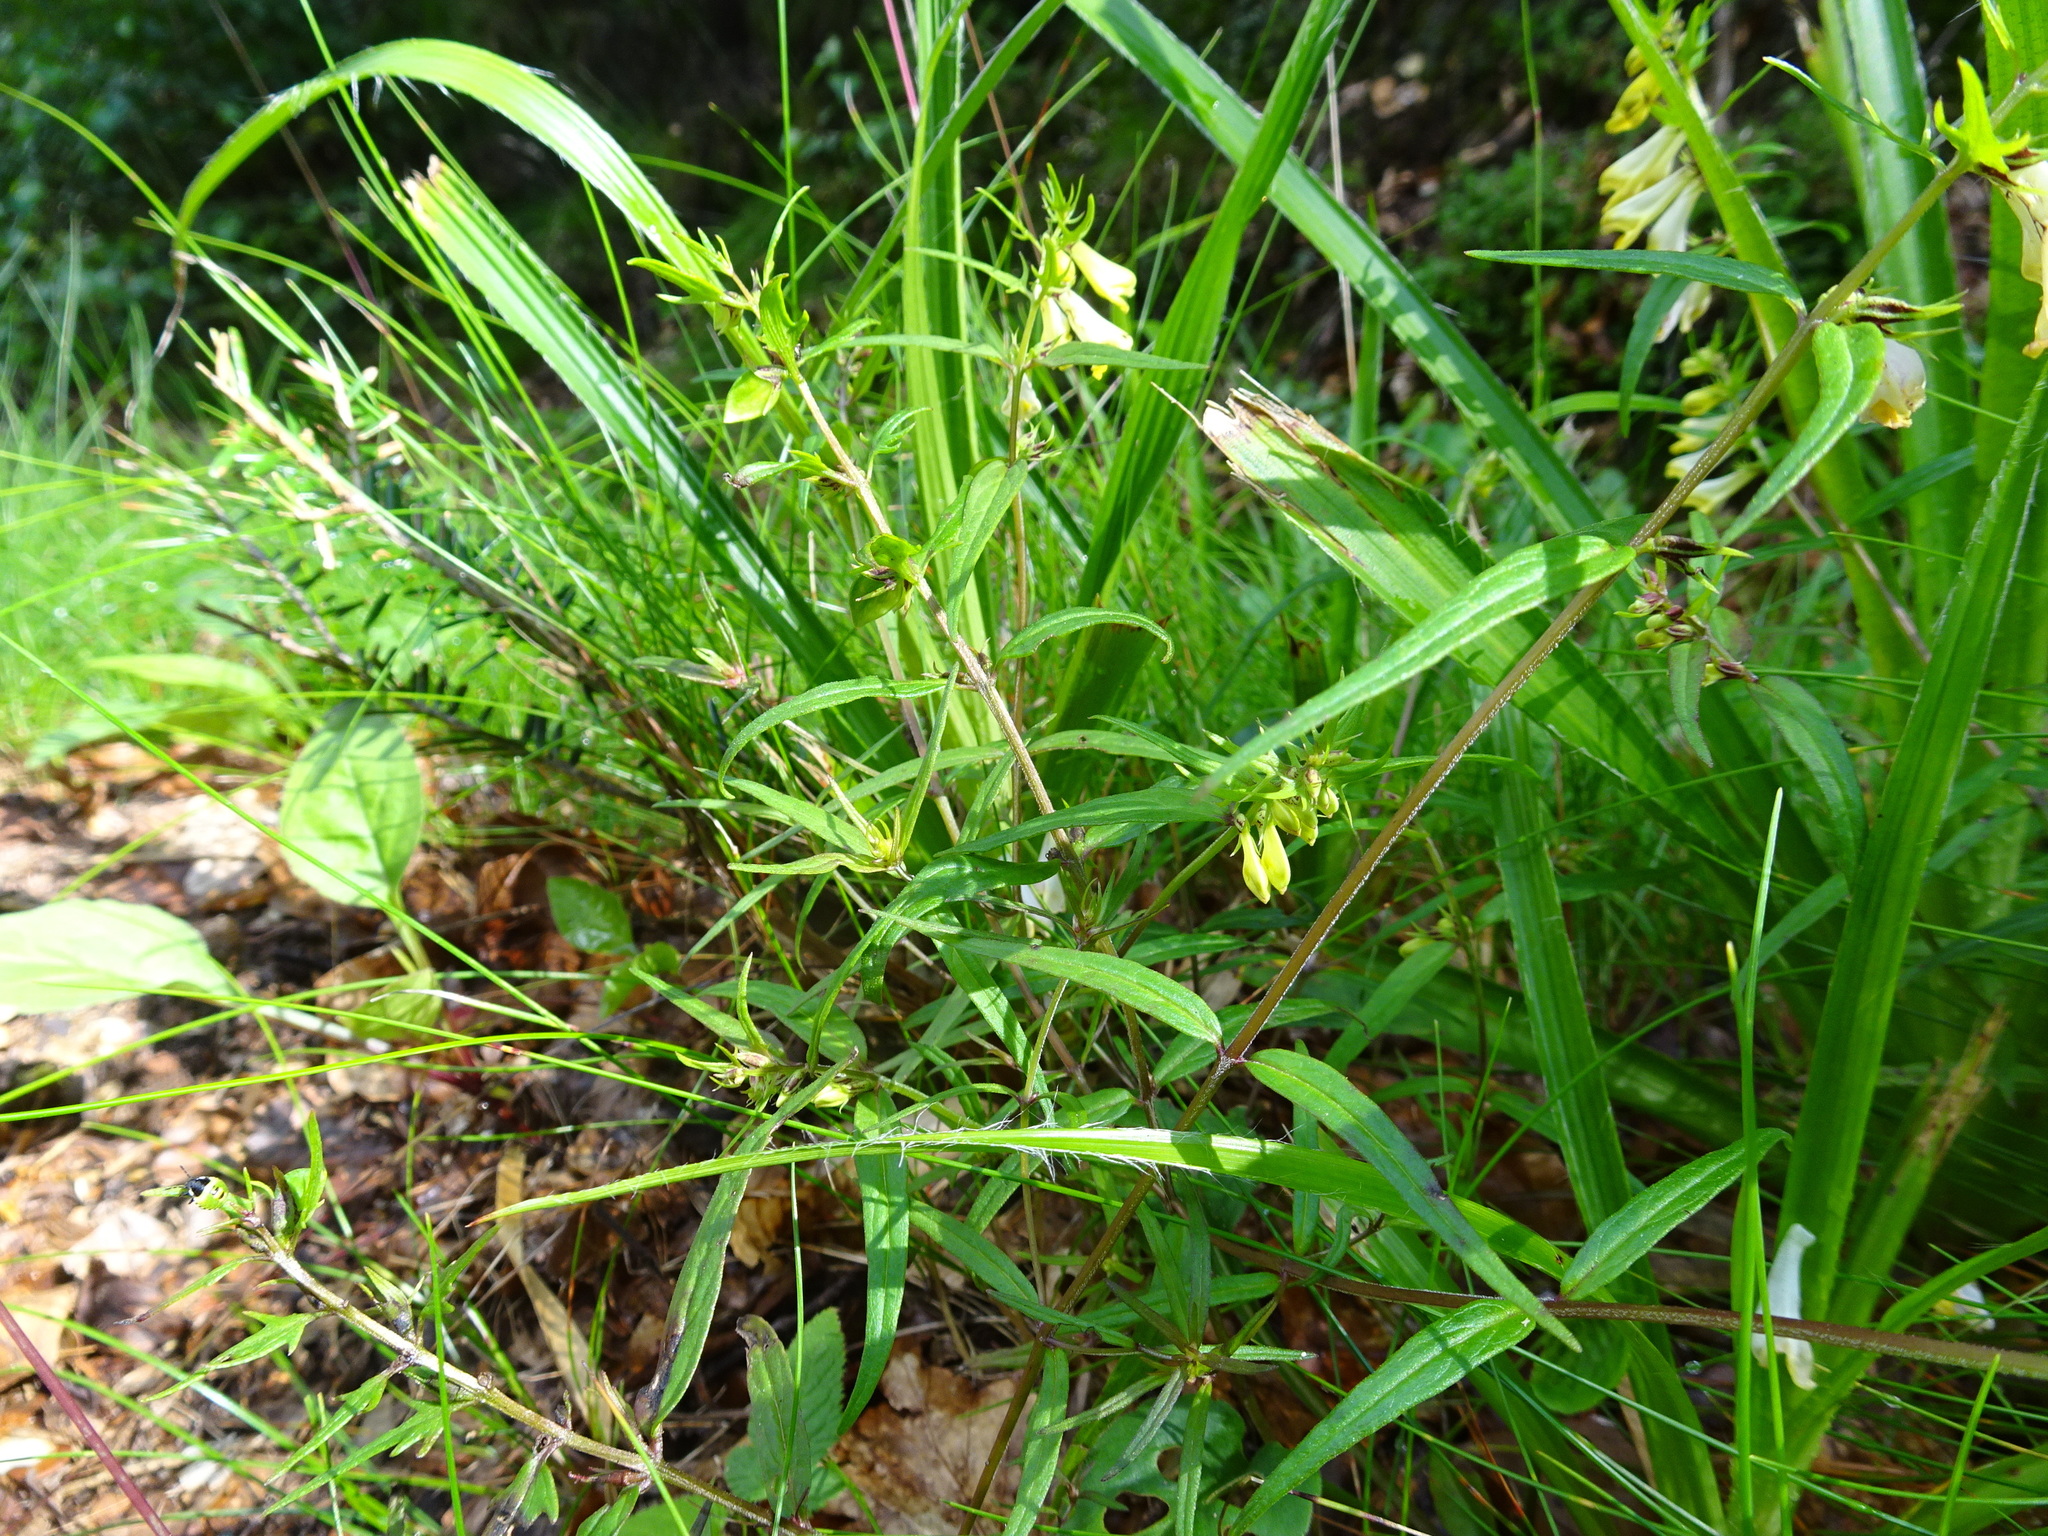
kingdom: Plantae
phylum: Tracheophyta
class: Magnoliopsida
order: Lamiales
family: Orobanchaceae
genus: Melampyrum
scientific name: Melampyrum pratense
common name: Common cow-wheat
